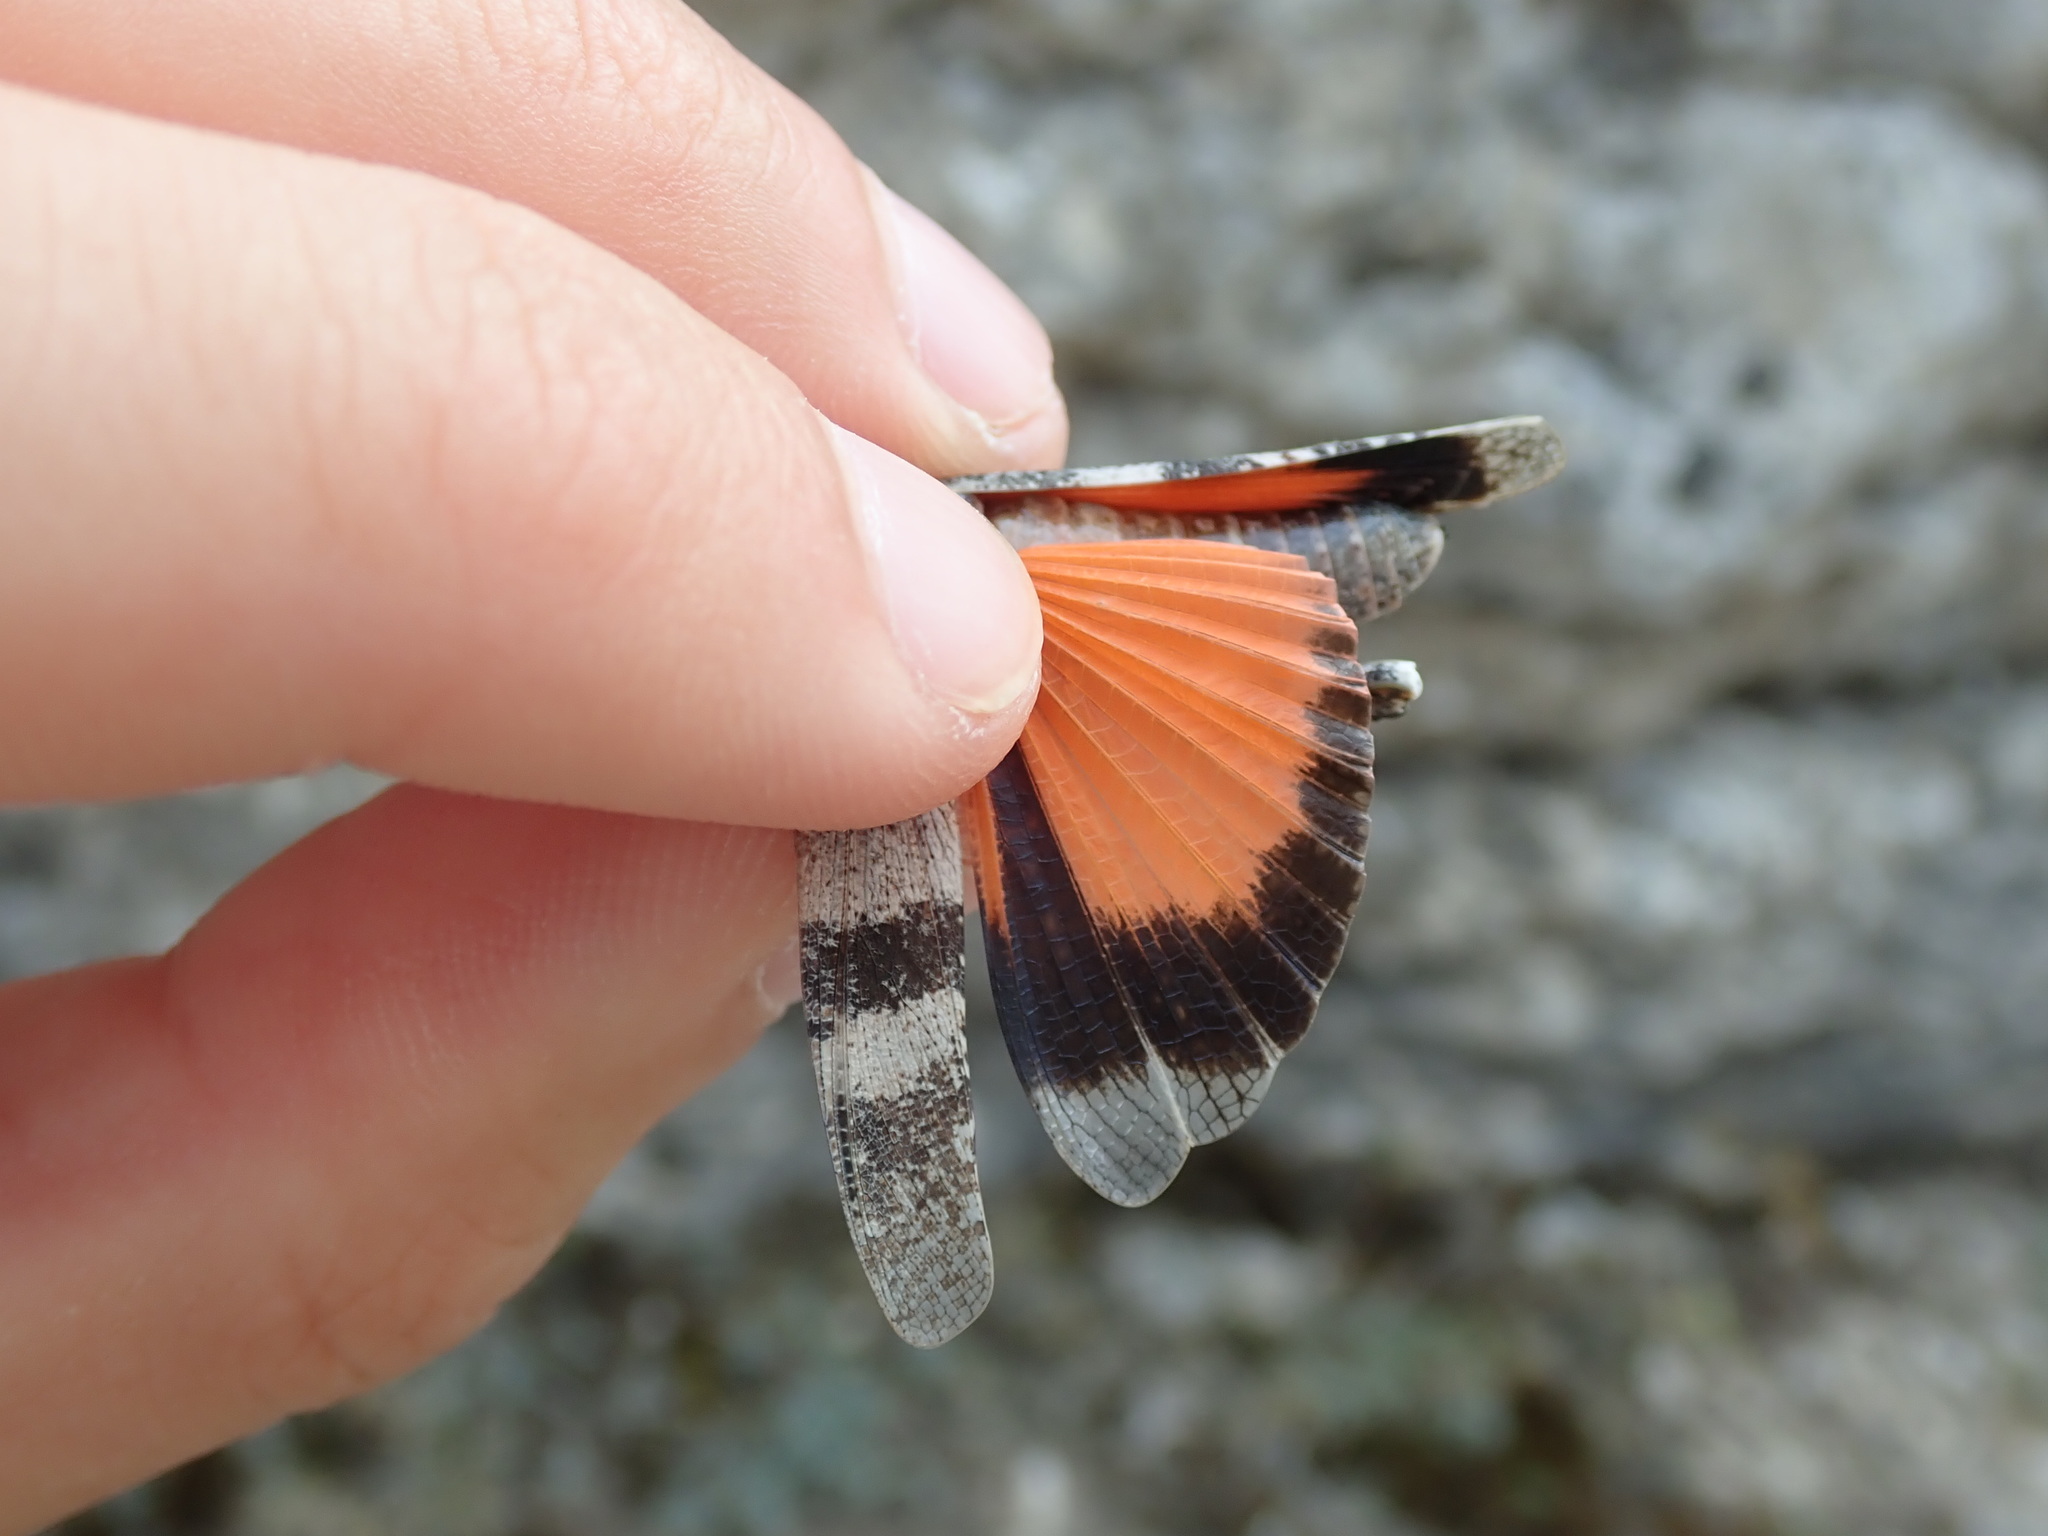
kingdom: Animalia
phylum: Arthropoda
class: Insecta
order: Orthoptera
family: Acrididae
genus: Oedipoda
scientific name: Oedipoda germanica
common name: Red band-winged grasshopper
